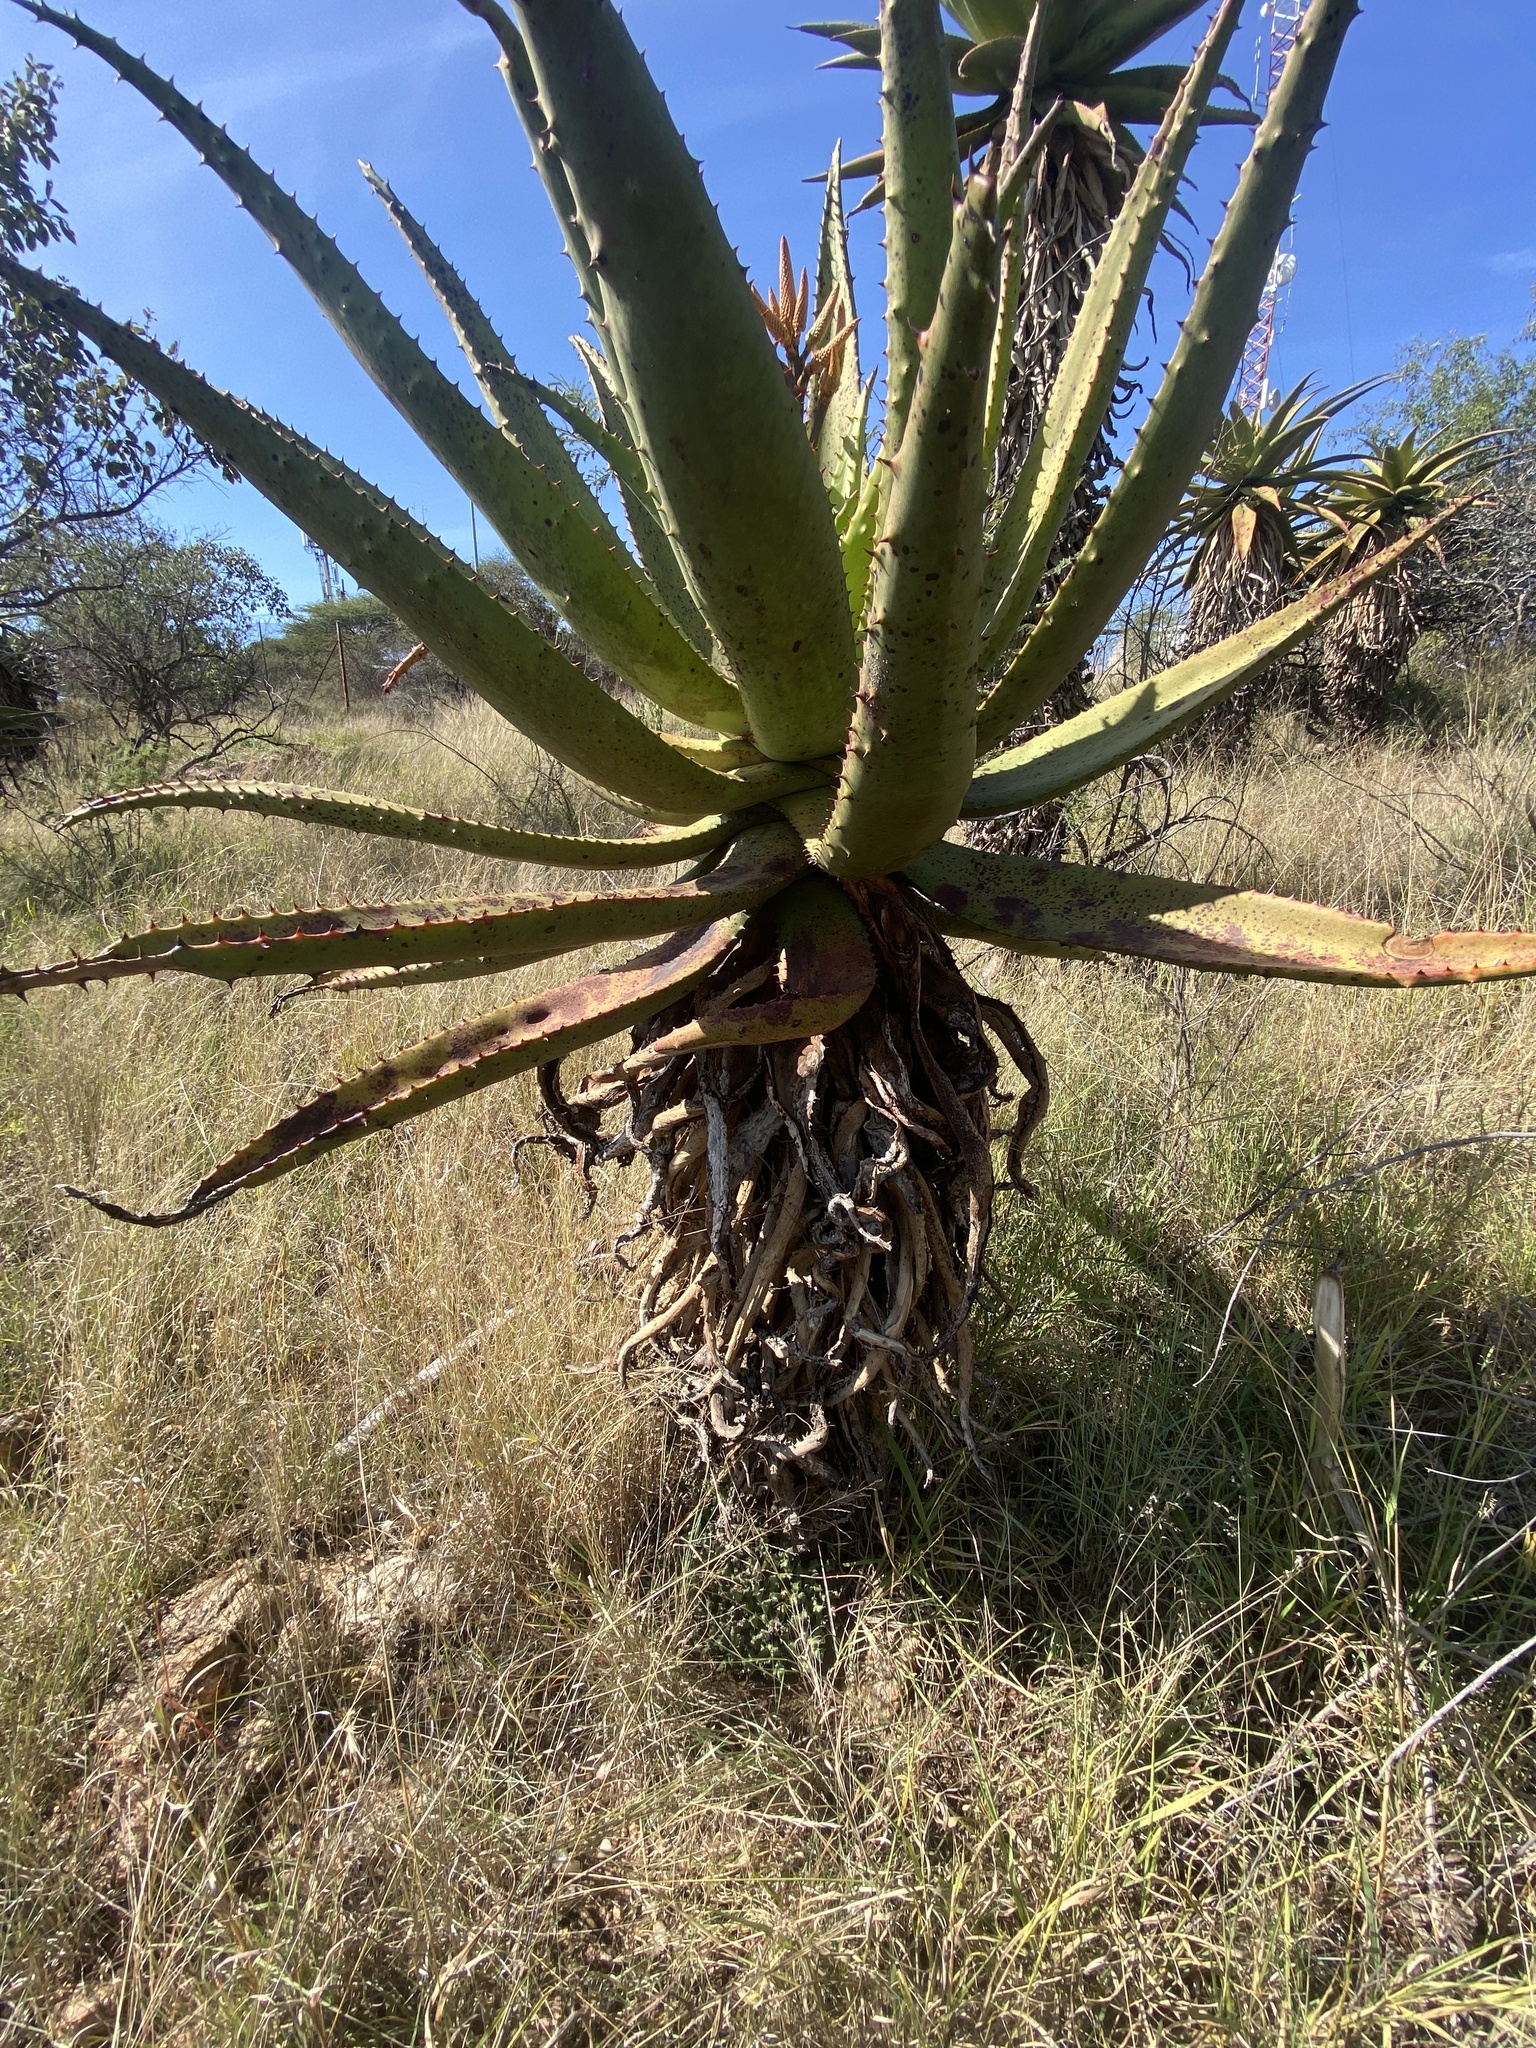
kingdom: Plantae
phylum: Tracheophyta
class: Liliopsida
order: Asparagales
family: Asphodelaceae
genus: Aloe
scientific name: Aloe marlothii
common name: Flat-flowered aloe
